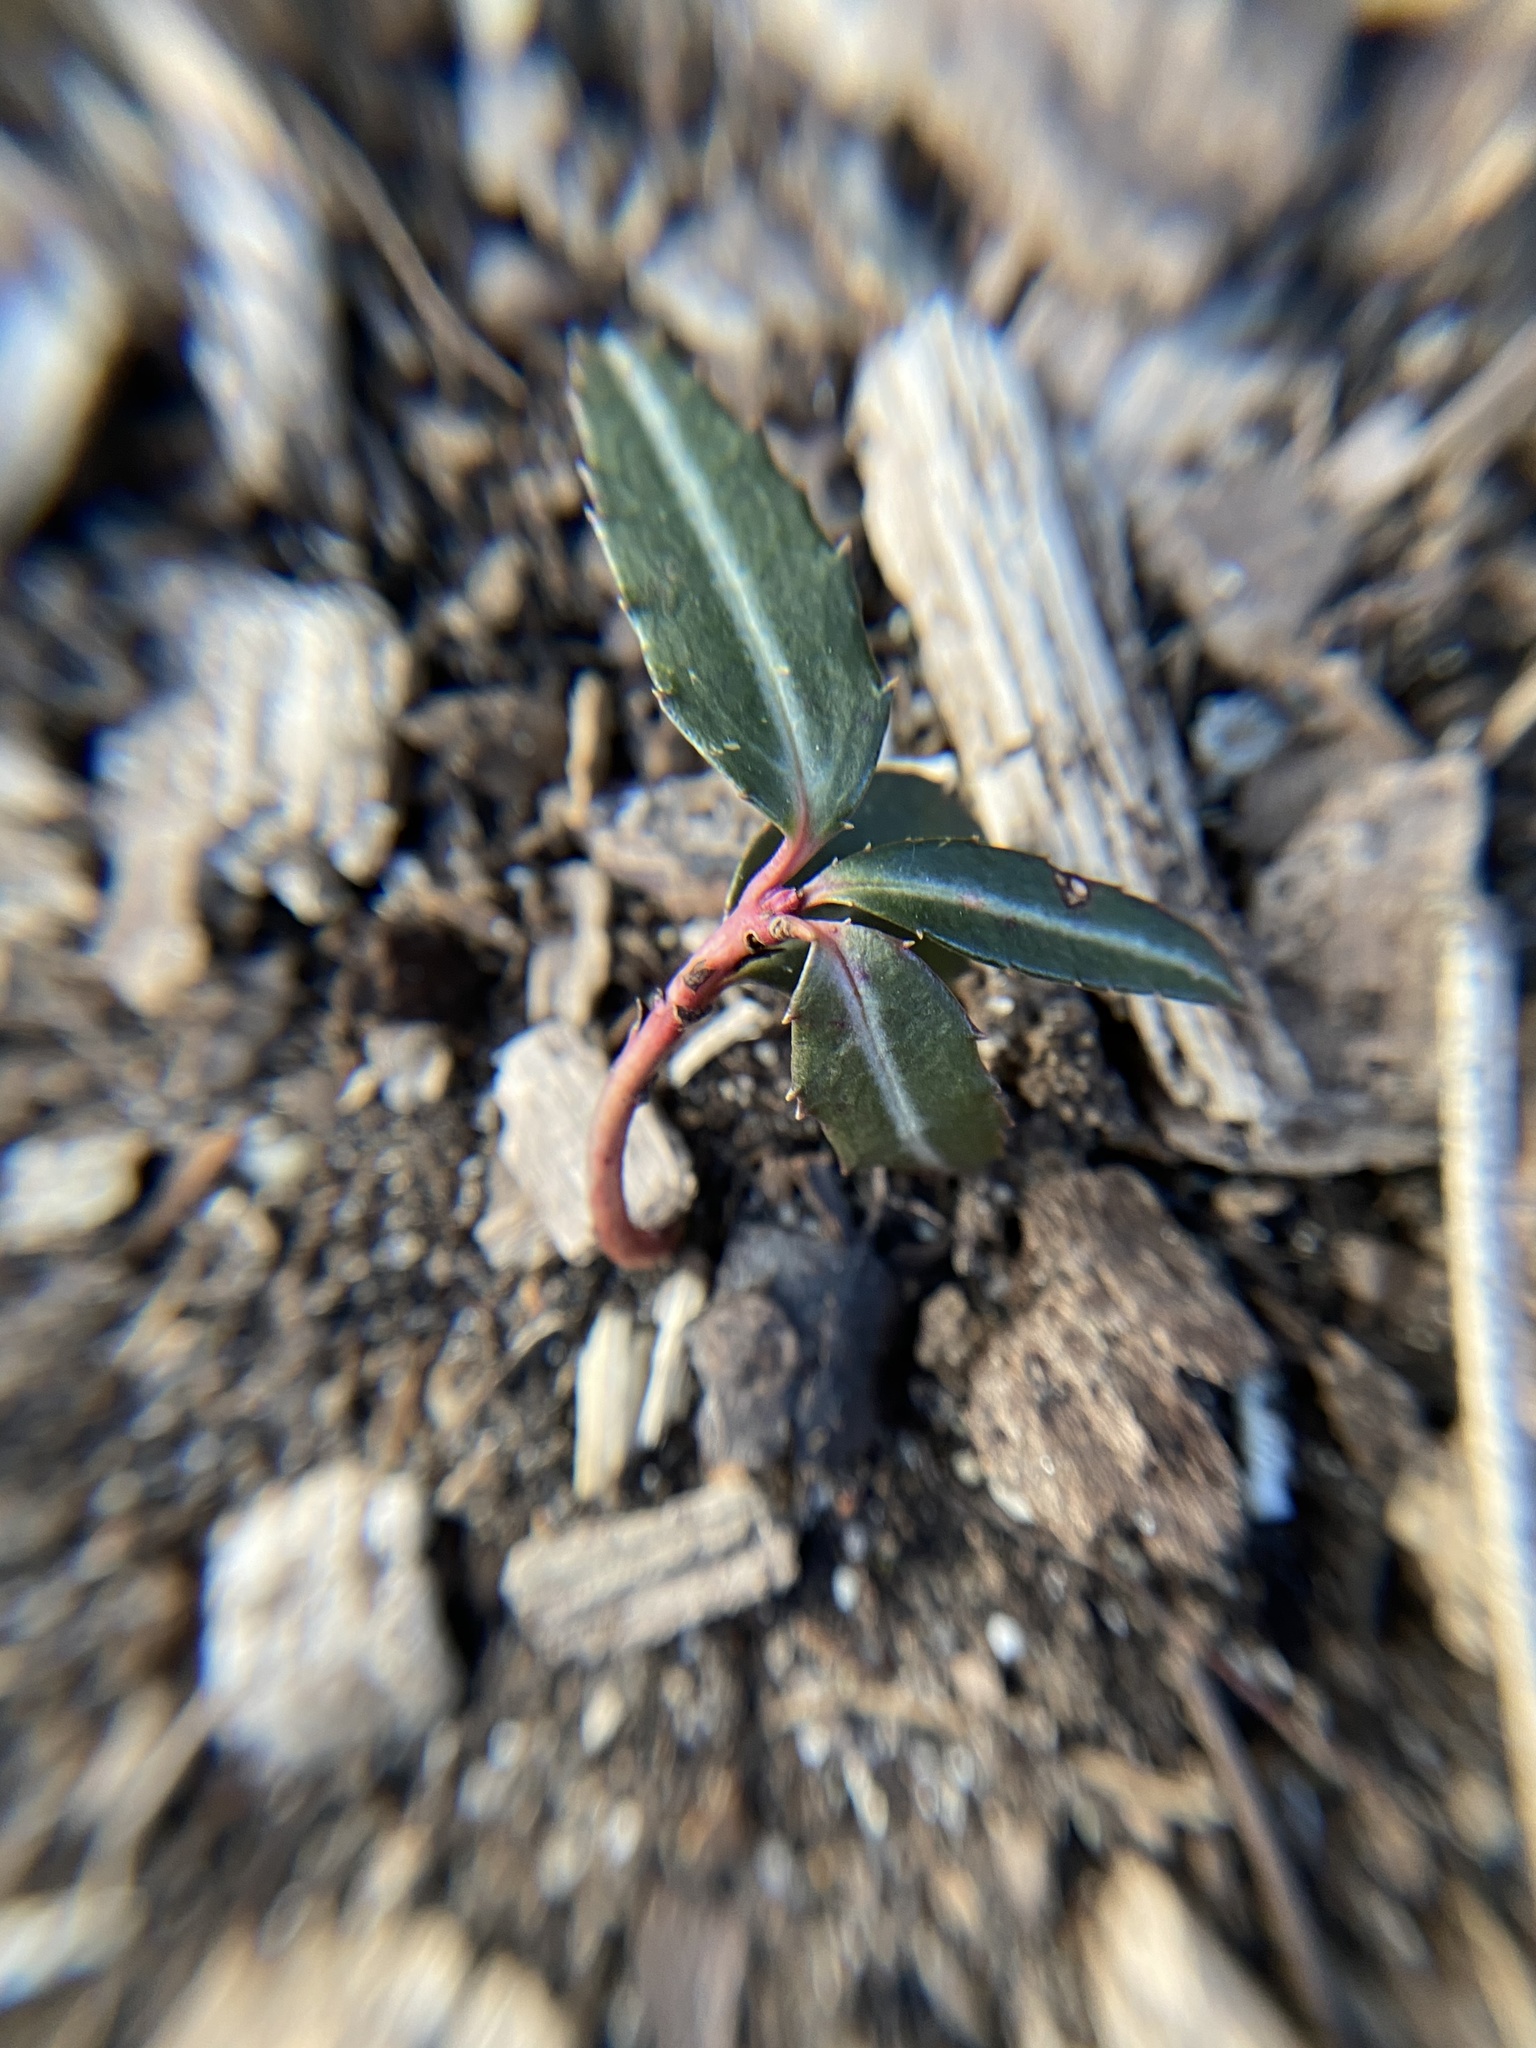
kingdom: Plantae
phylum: Tracheophyta
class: Magnoliopsida
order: Ericales
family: Ericaceae
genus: Chimaphila
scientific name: Chimaphila maculata
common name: Spotted pipsissewa
